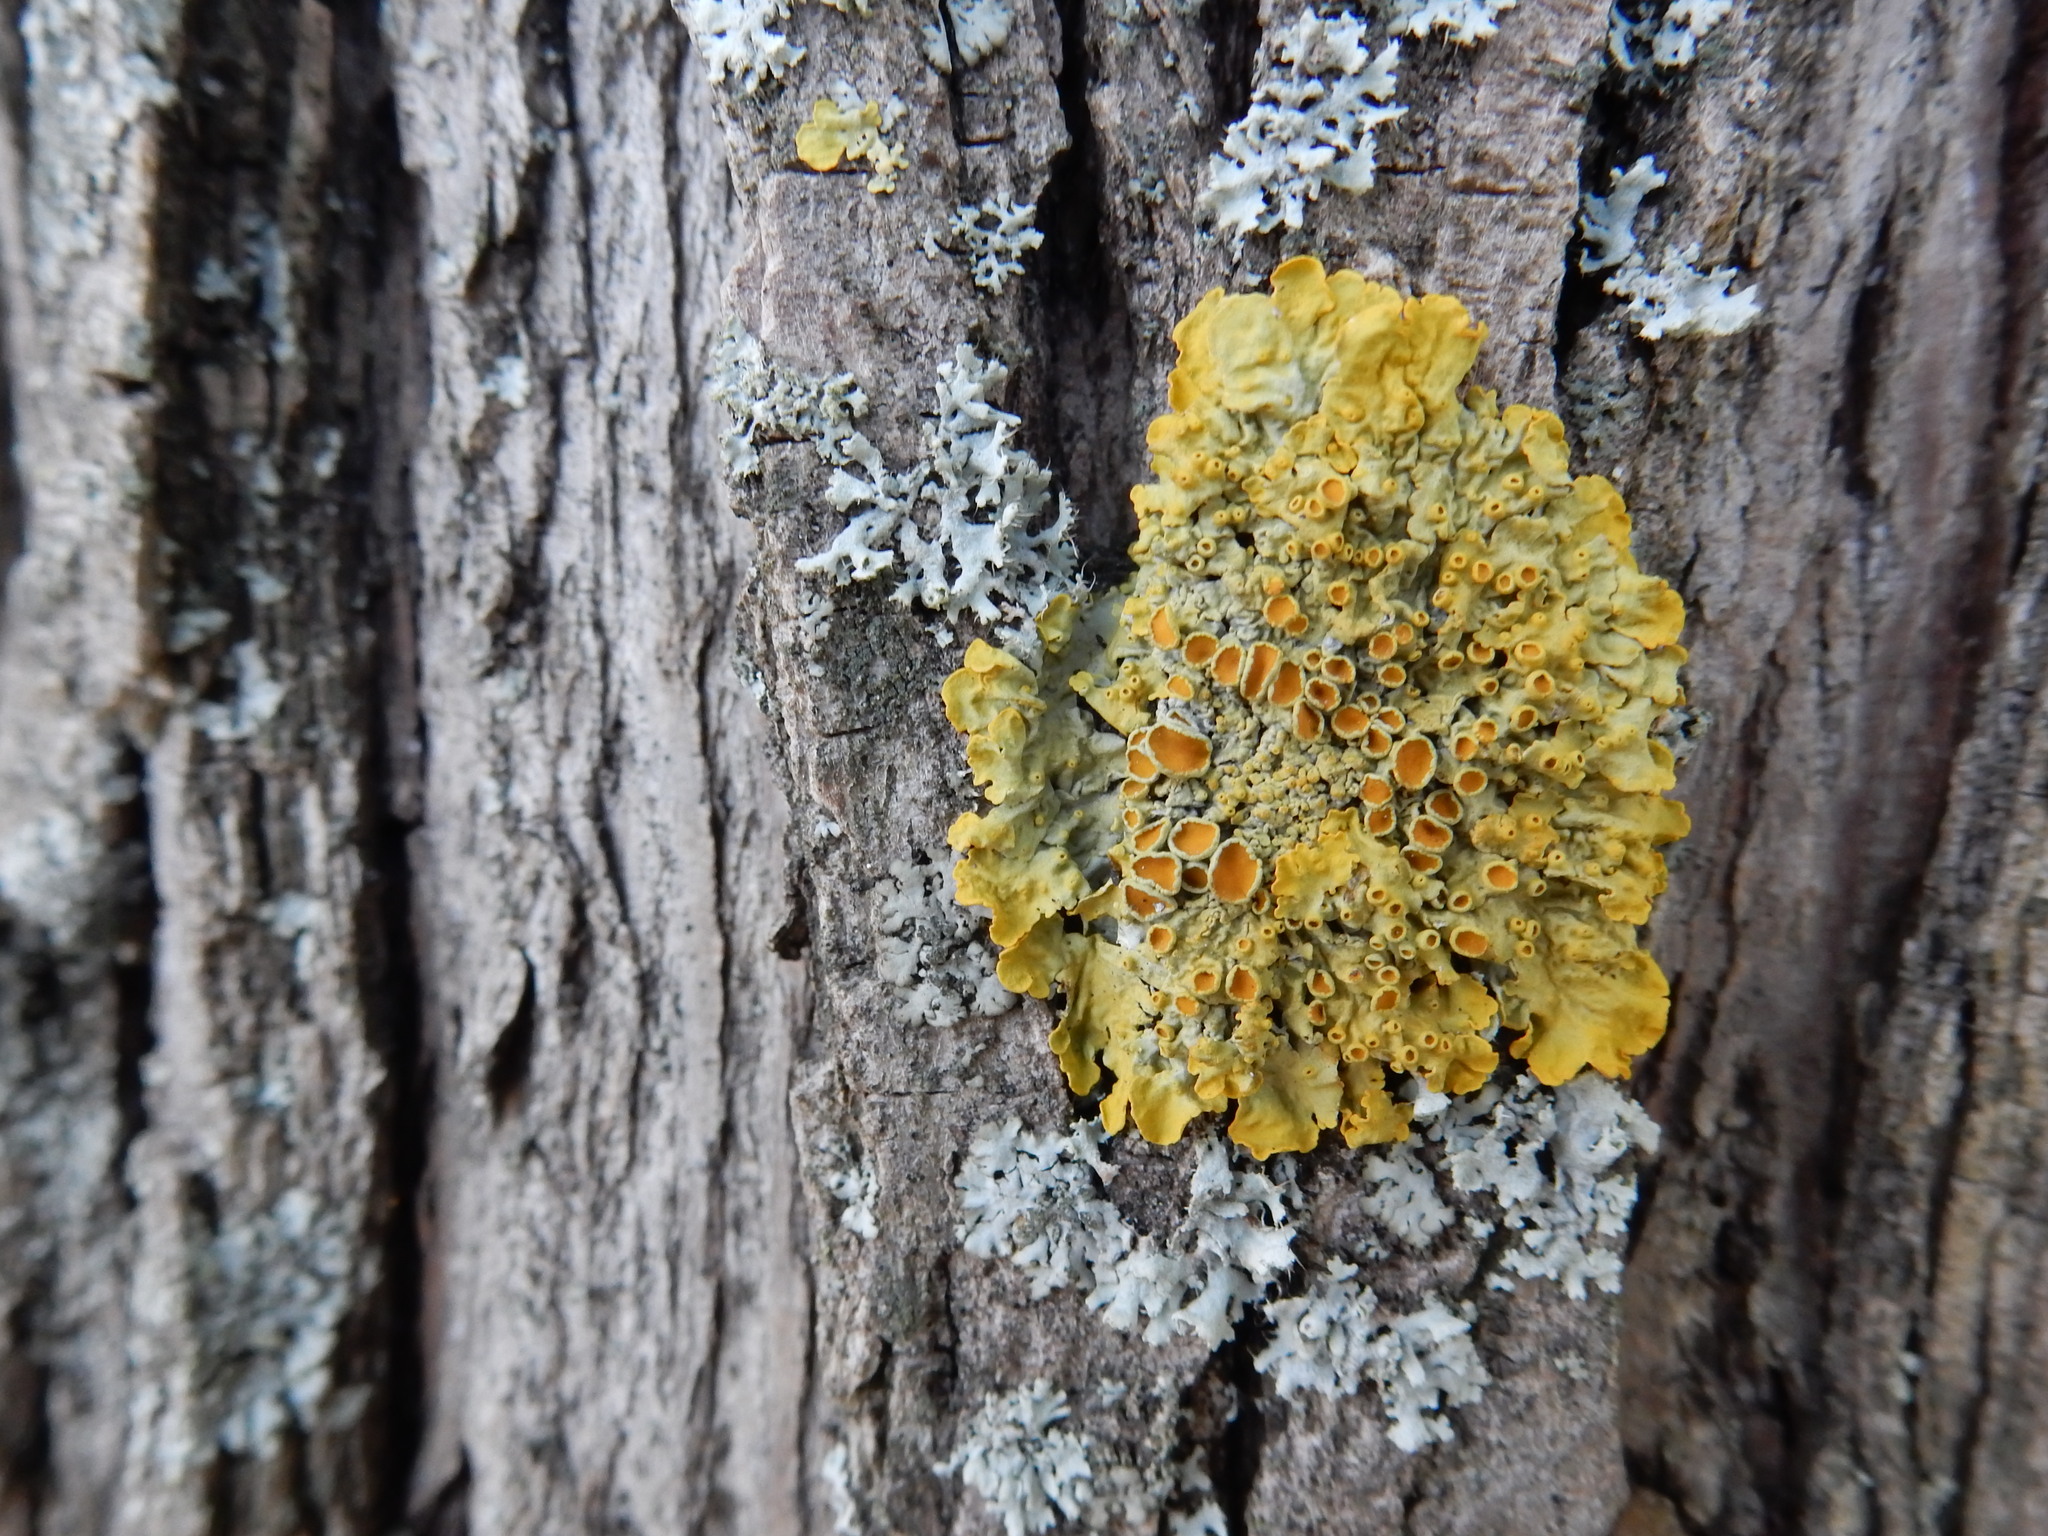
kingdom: Fungi
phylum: Ascomycota
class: Lecanoromycetes
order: Teloschistales
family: Teloschistaceae
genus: Xanthoria
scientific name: Xanthoria parietina
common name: Common orange lichen
